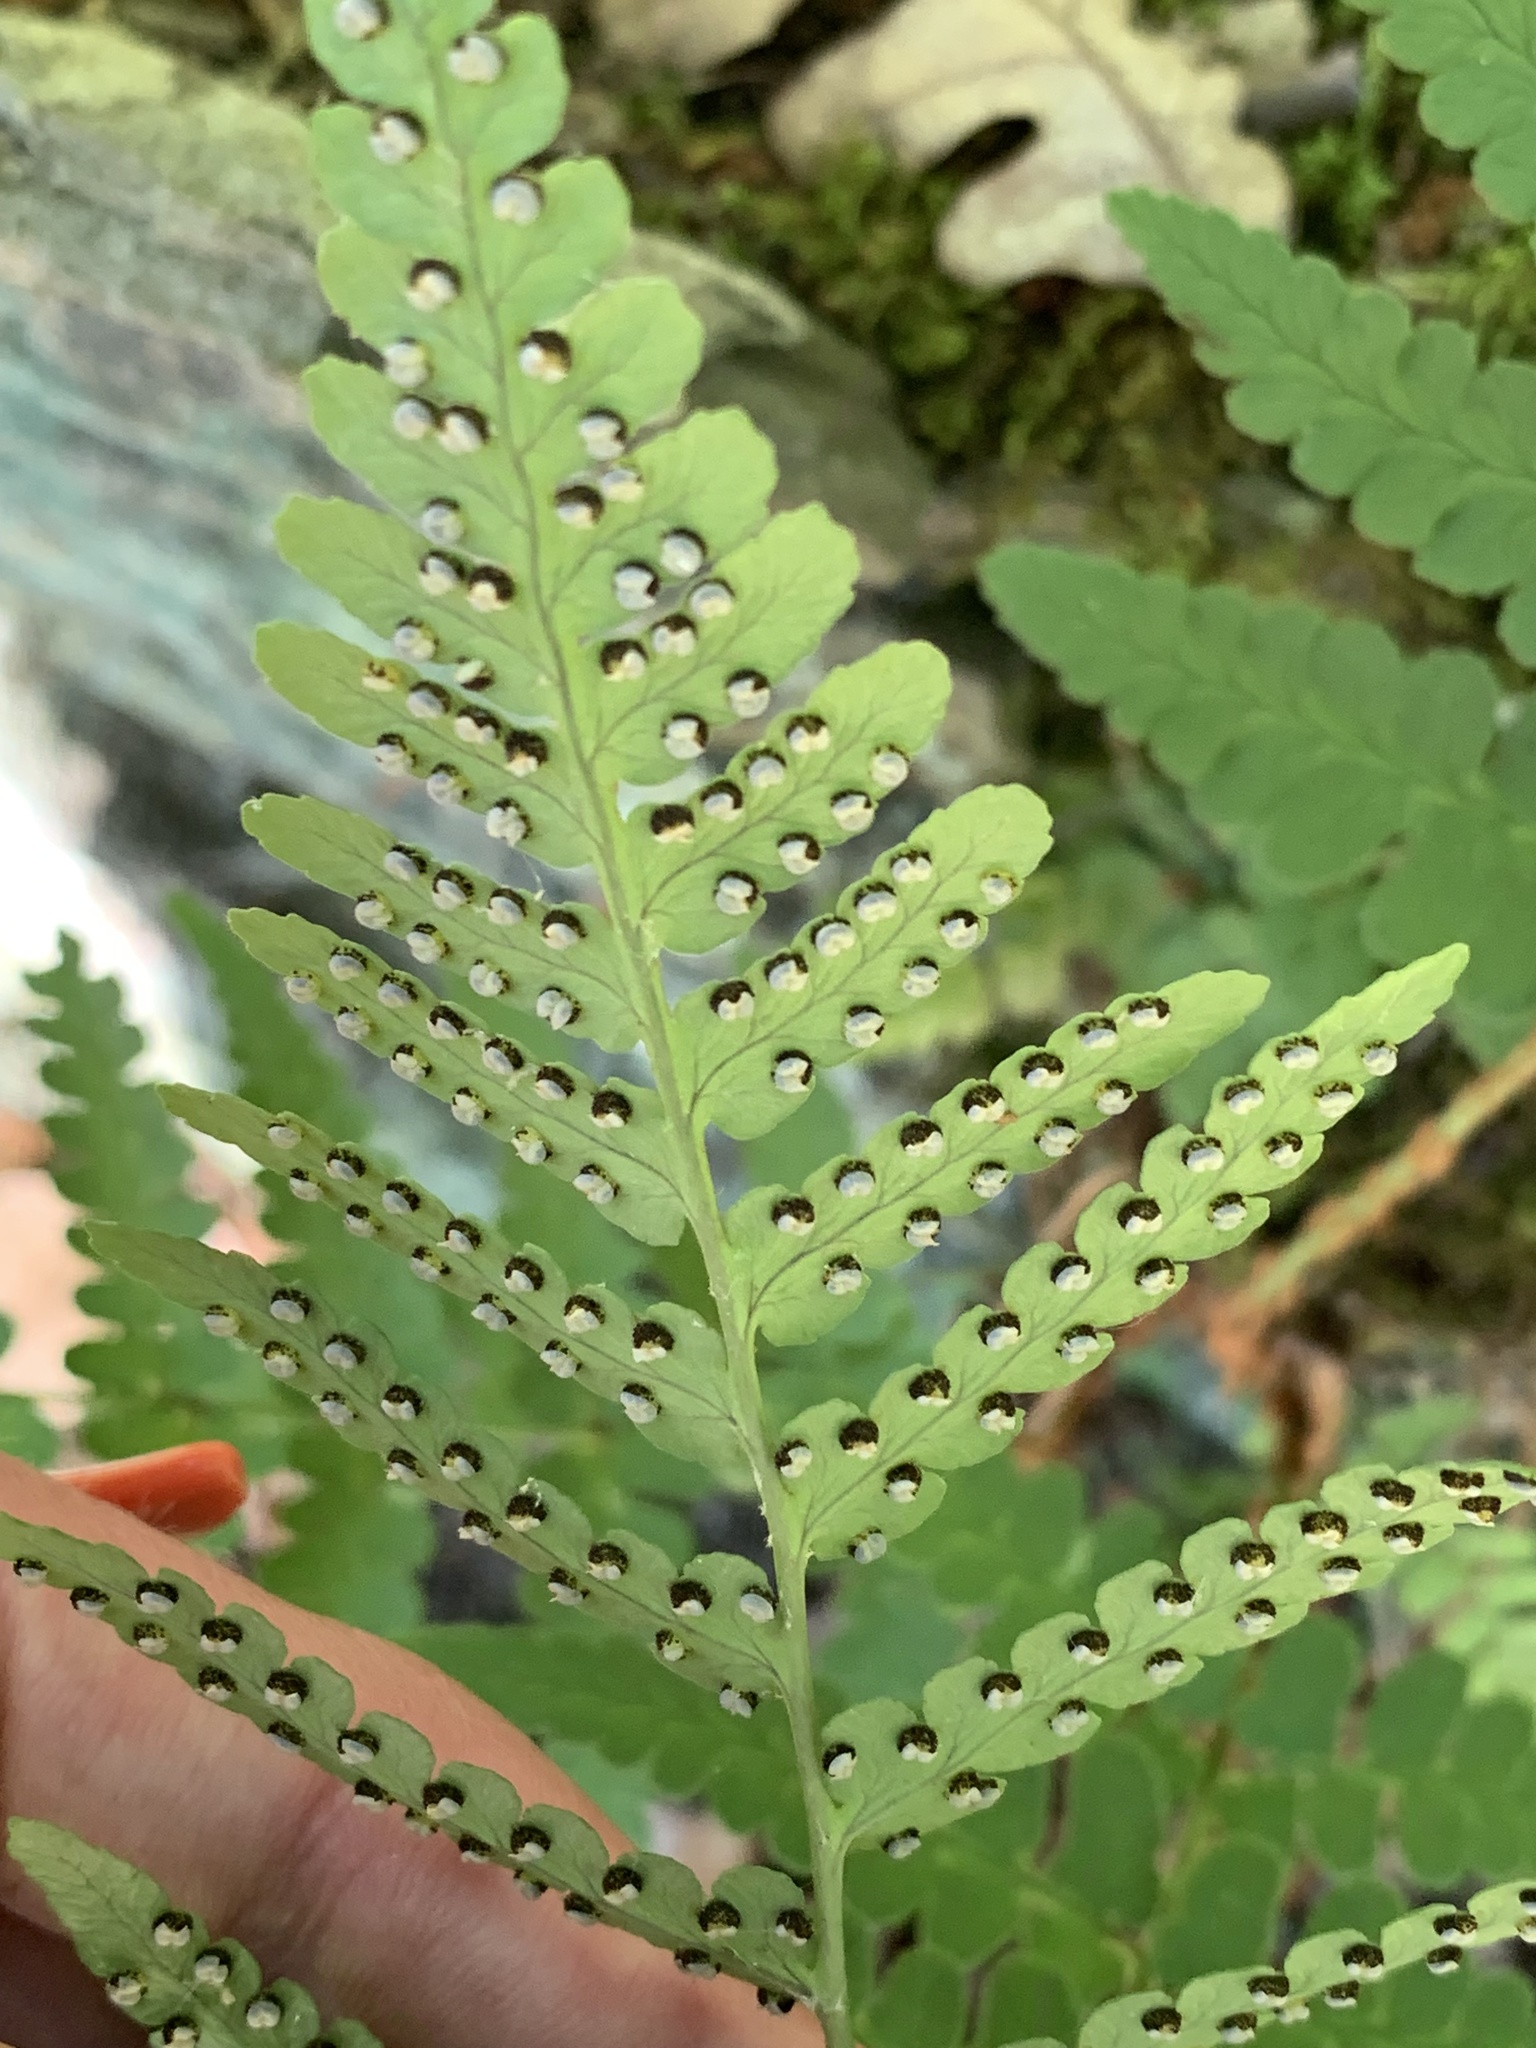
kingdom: Plantae
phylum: Tracheophyta
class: Polypodiopsida
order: Polypodiales
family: Dryopteridaceae
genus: Dryopteris
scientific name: Dryopteris marginalis
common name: Marginal wood fern
